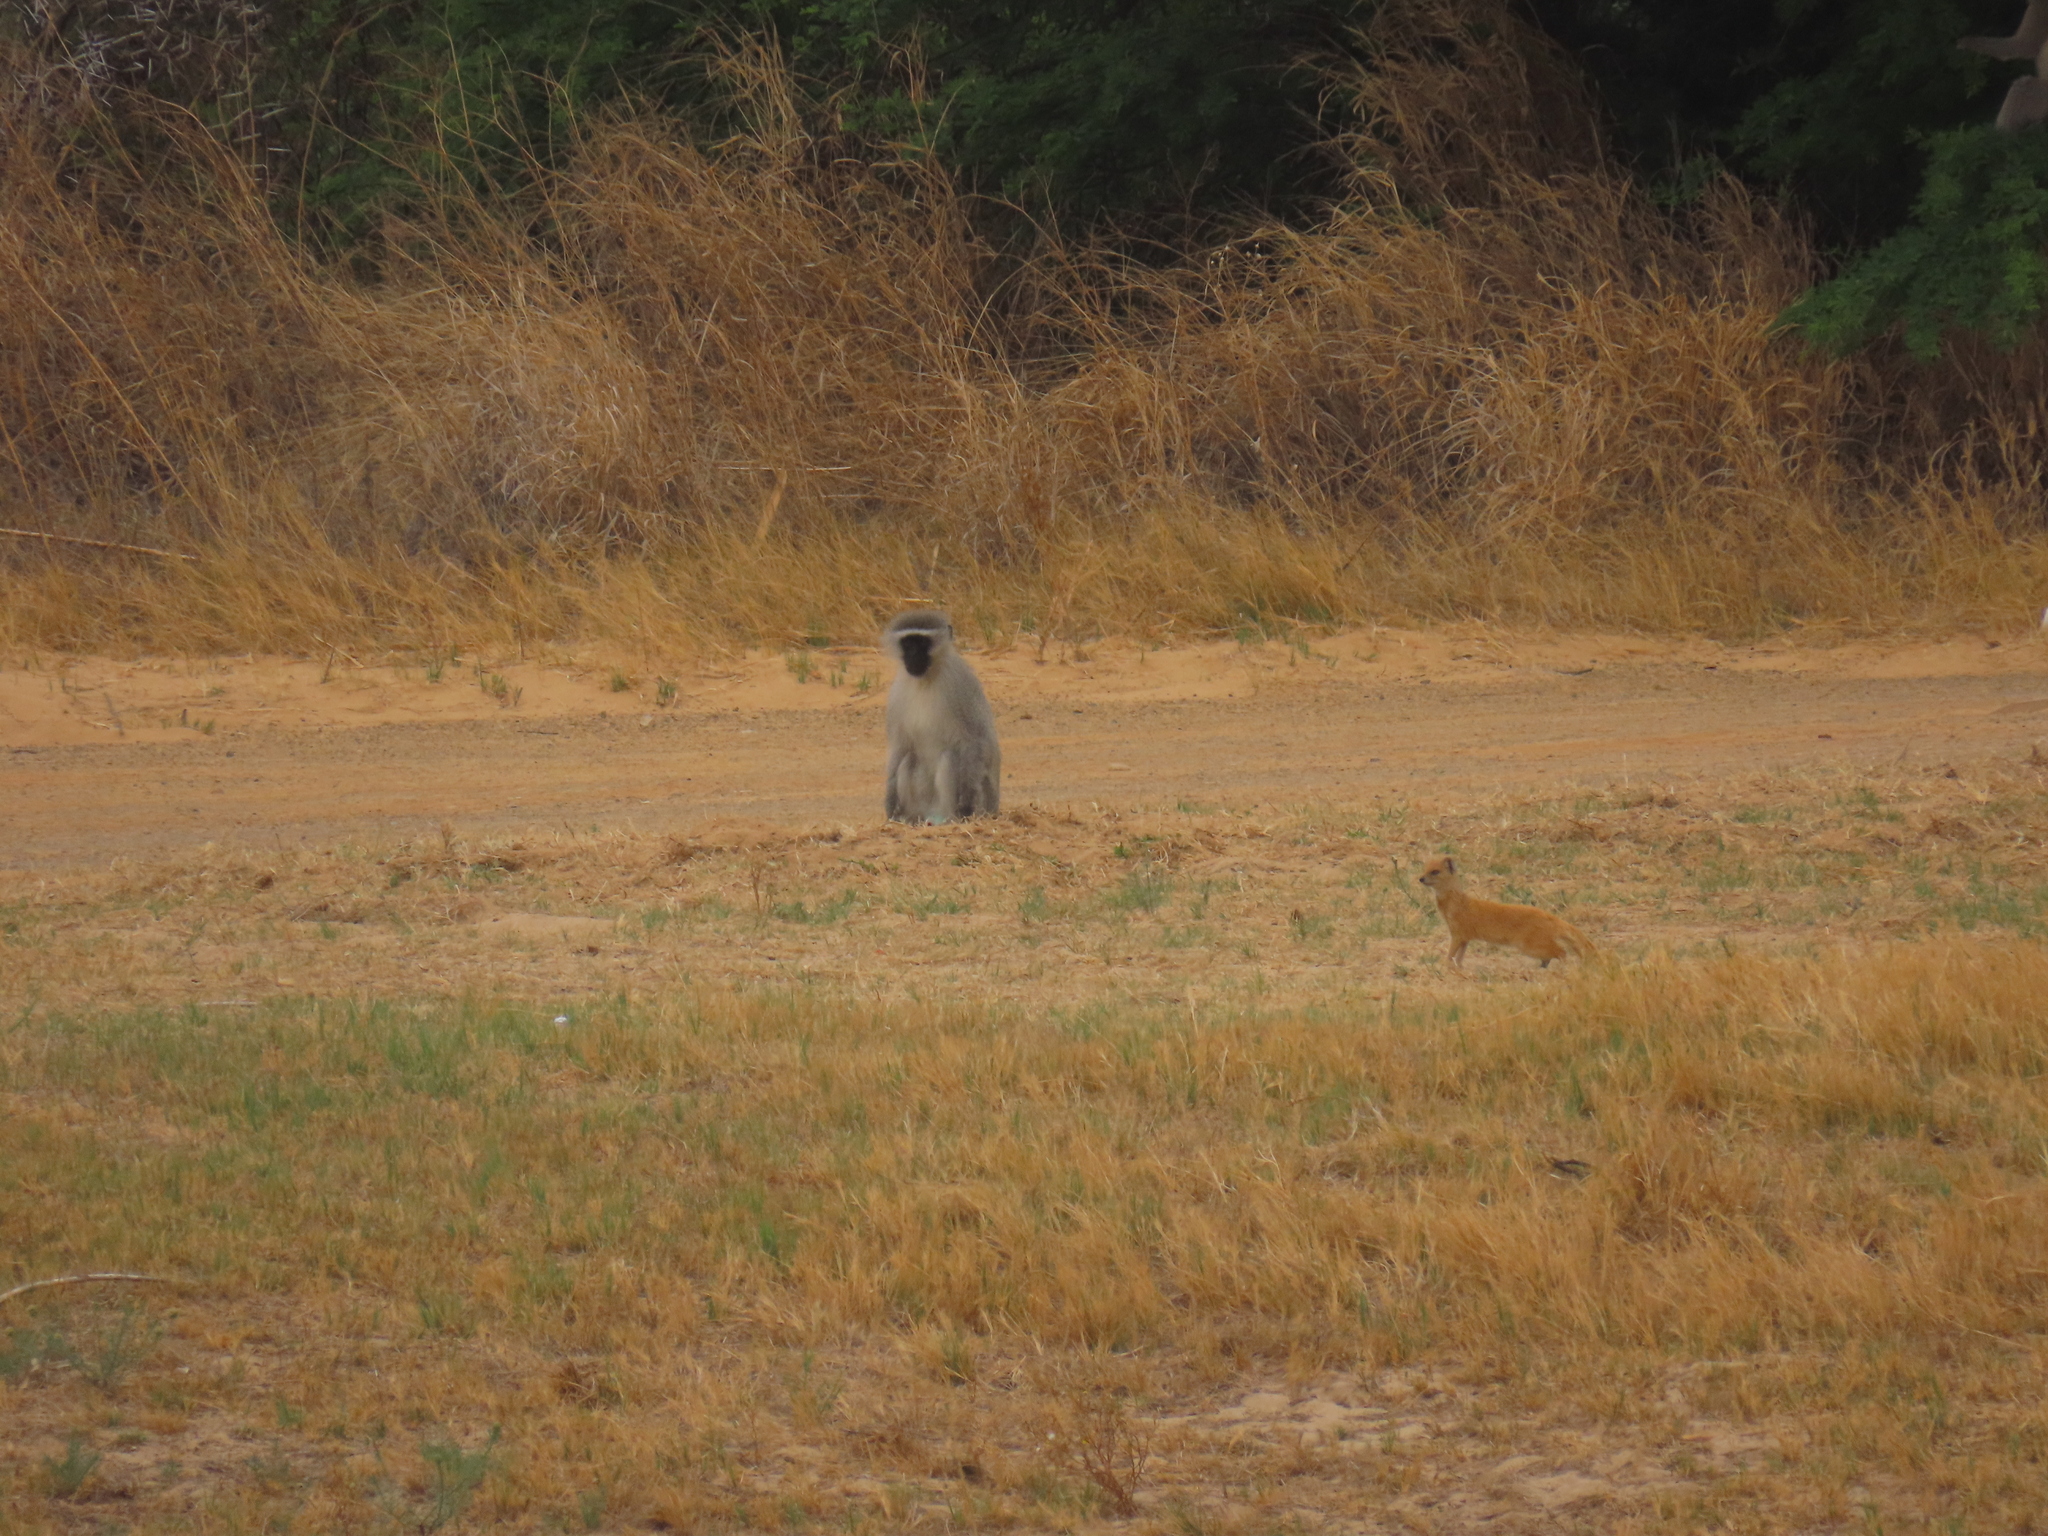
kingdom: Animalia
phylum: Chordata
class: Mammalia
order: Carnivora
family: Herpestidae
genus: Cynictis
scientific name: Cynictis penicillata
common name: Yellow mongoose
